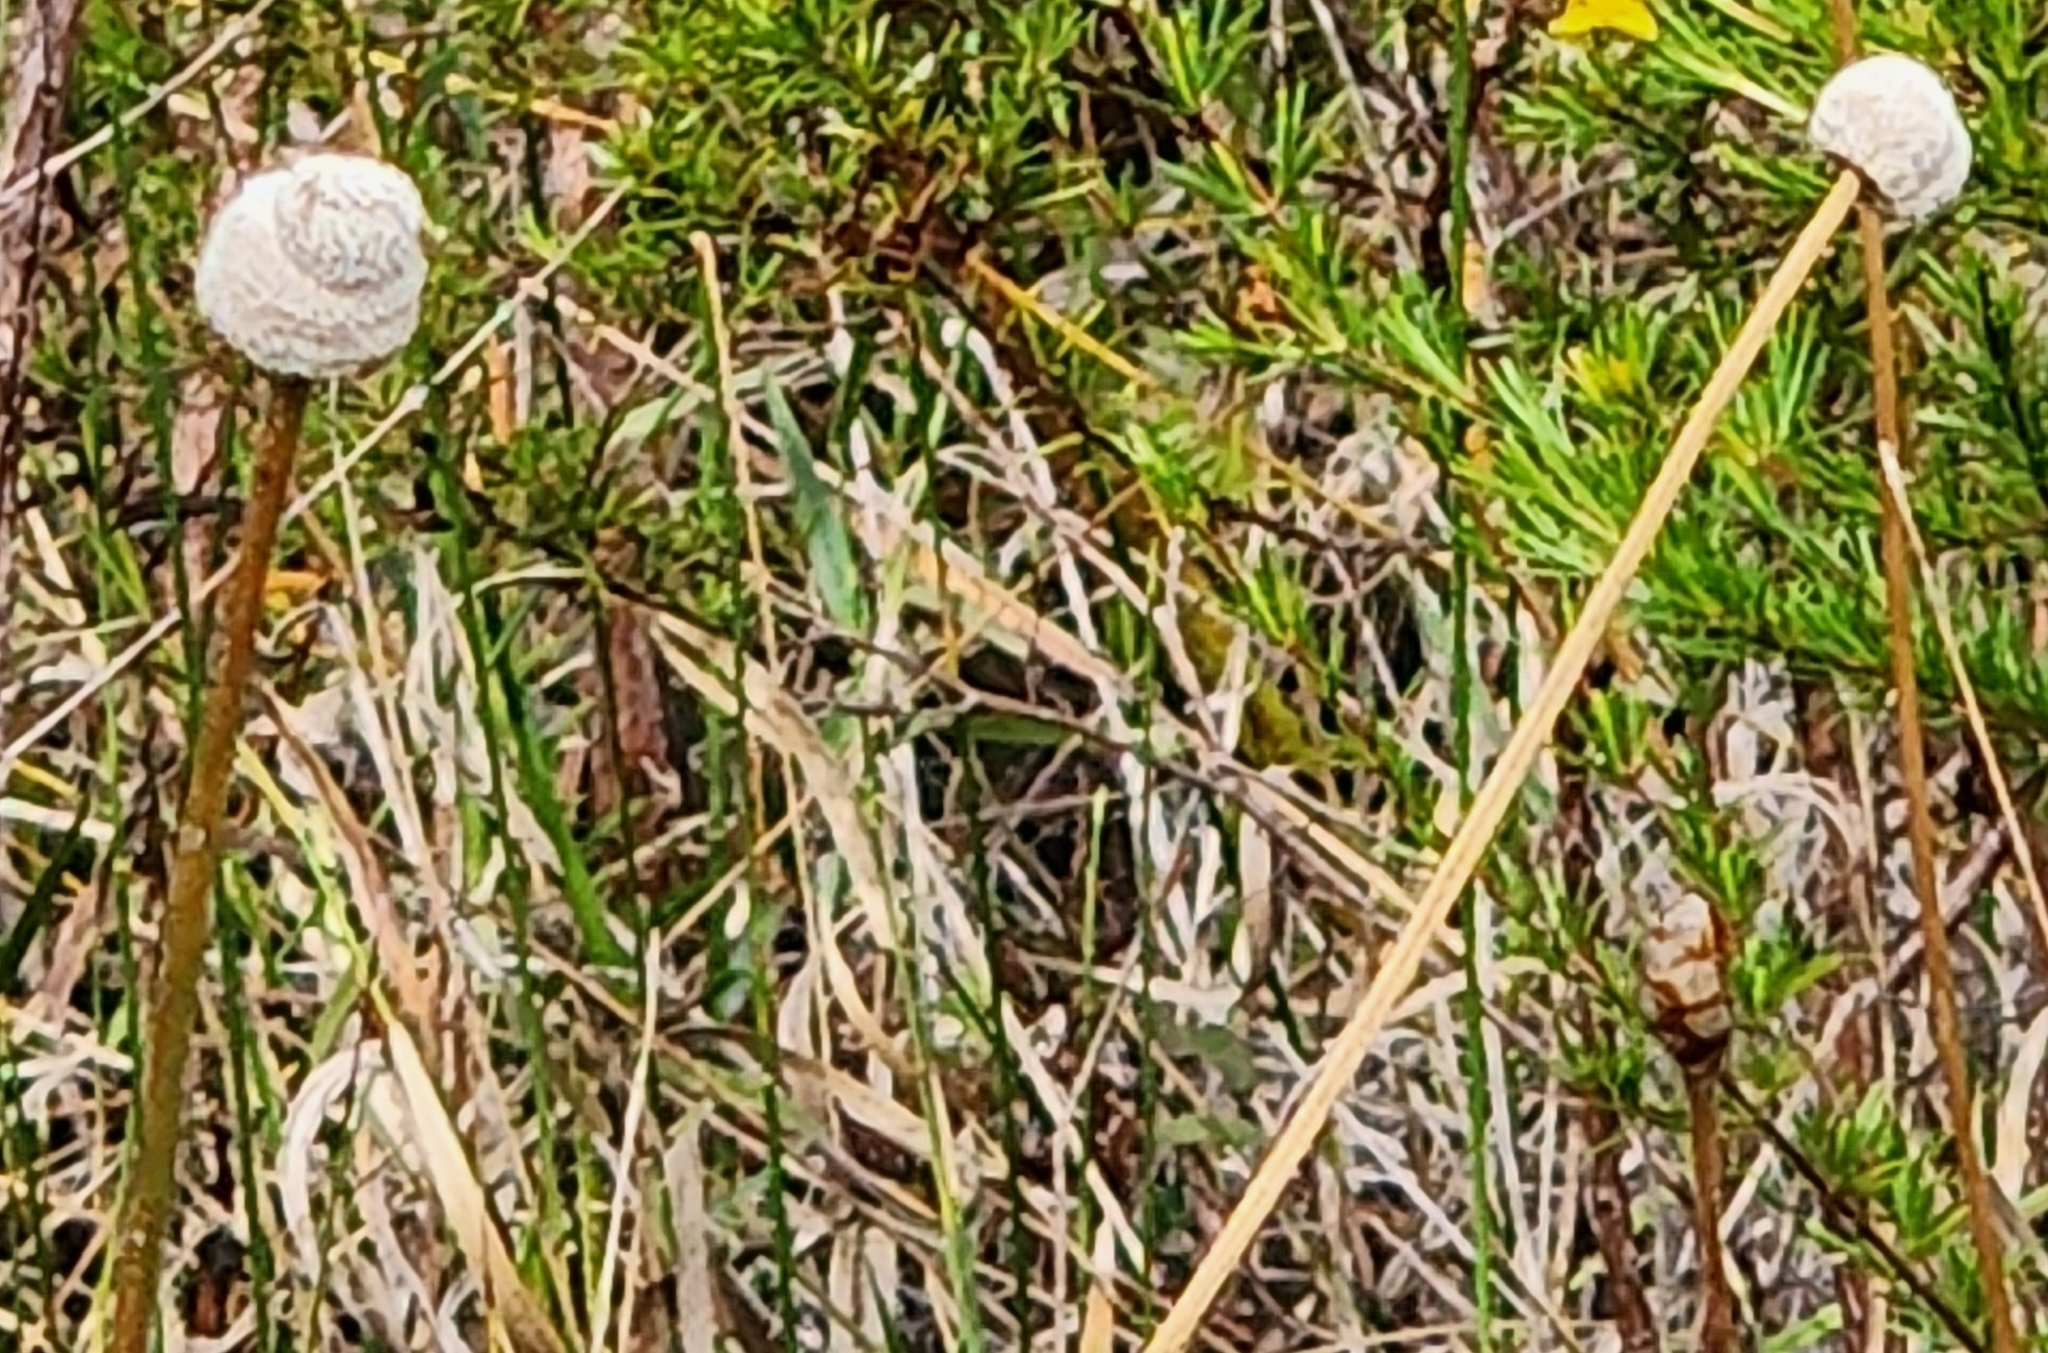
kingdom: Plantae
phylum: Tracheophyta
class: Liliopsida
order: Poales
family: Eriocaulaceae
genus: Eriocaulon
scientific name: Eriocaulon decangulare
